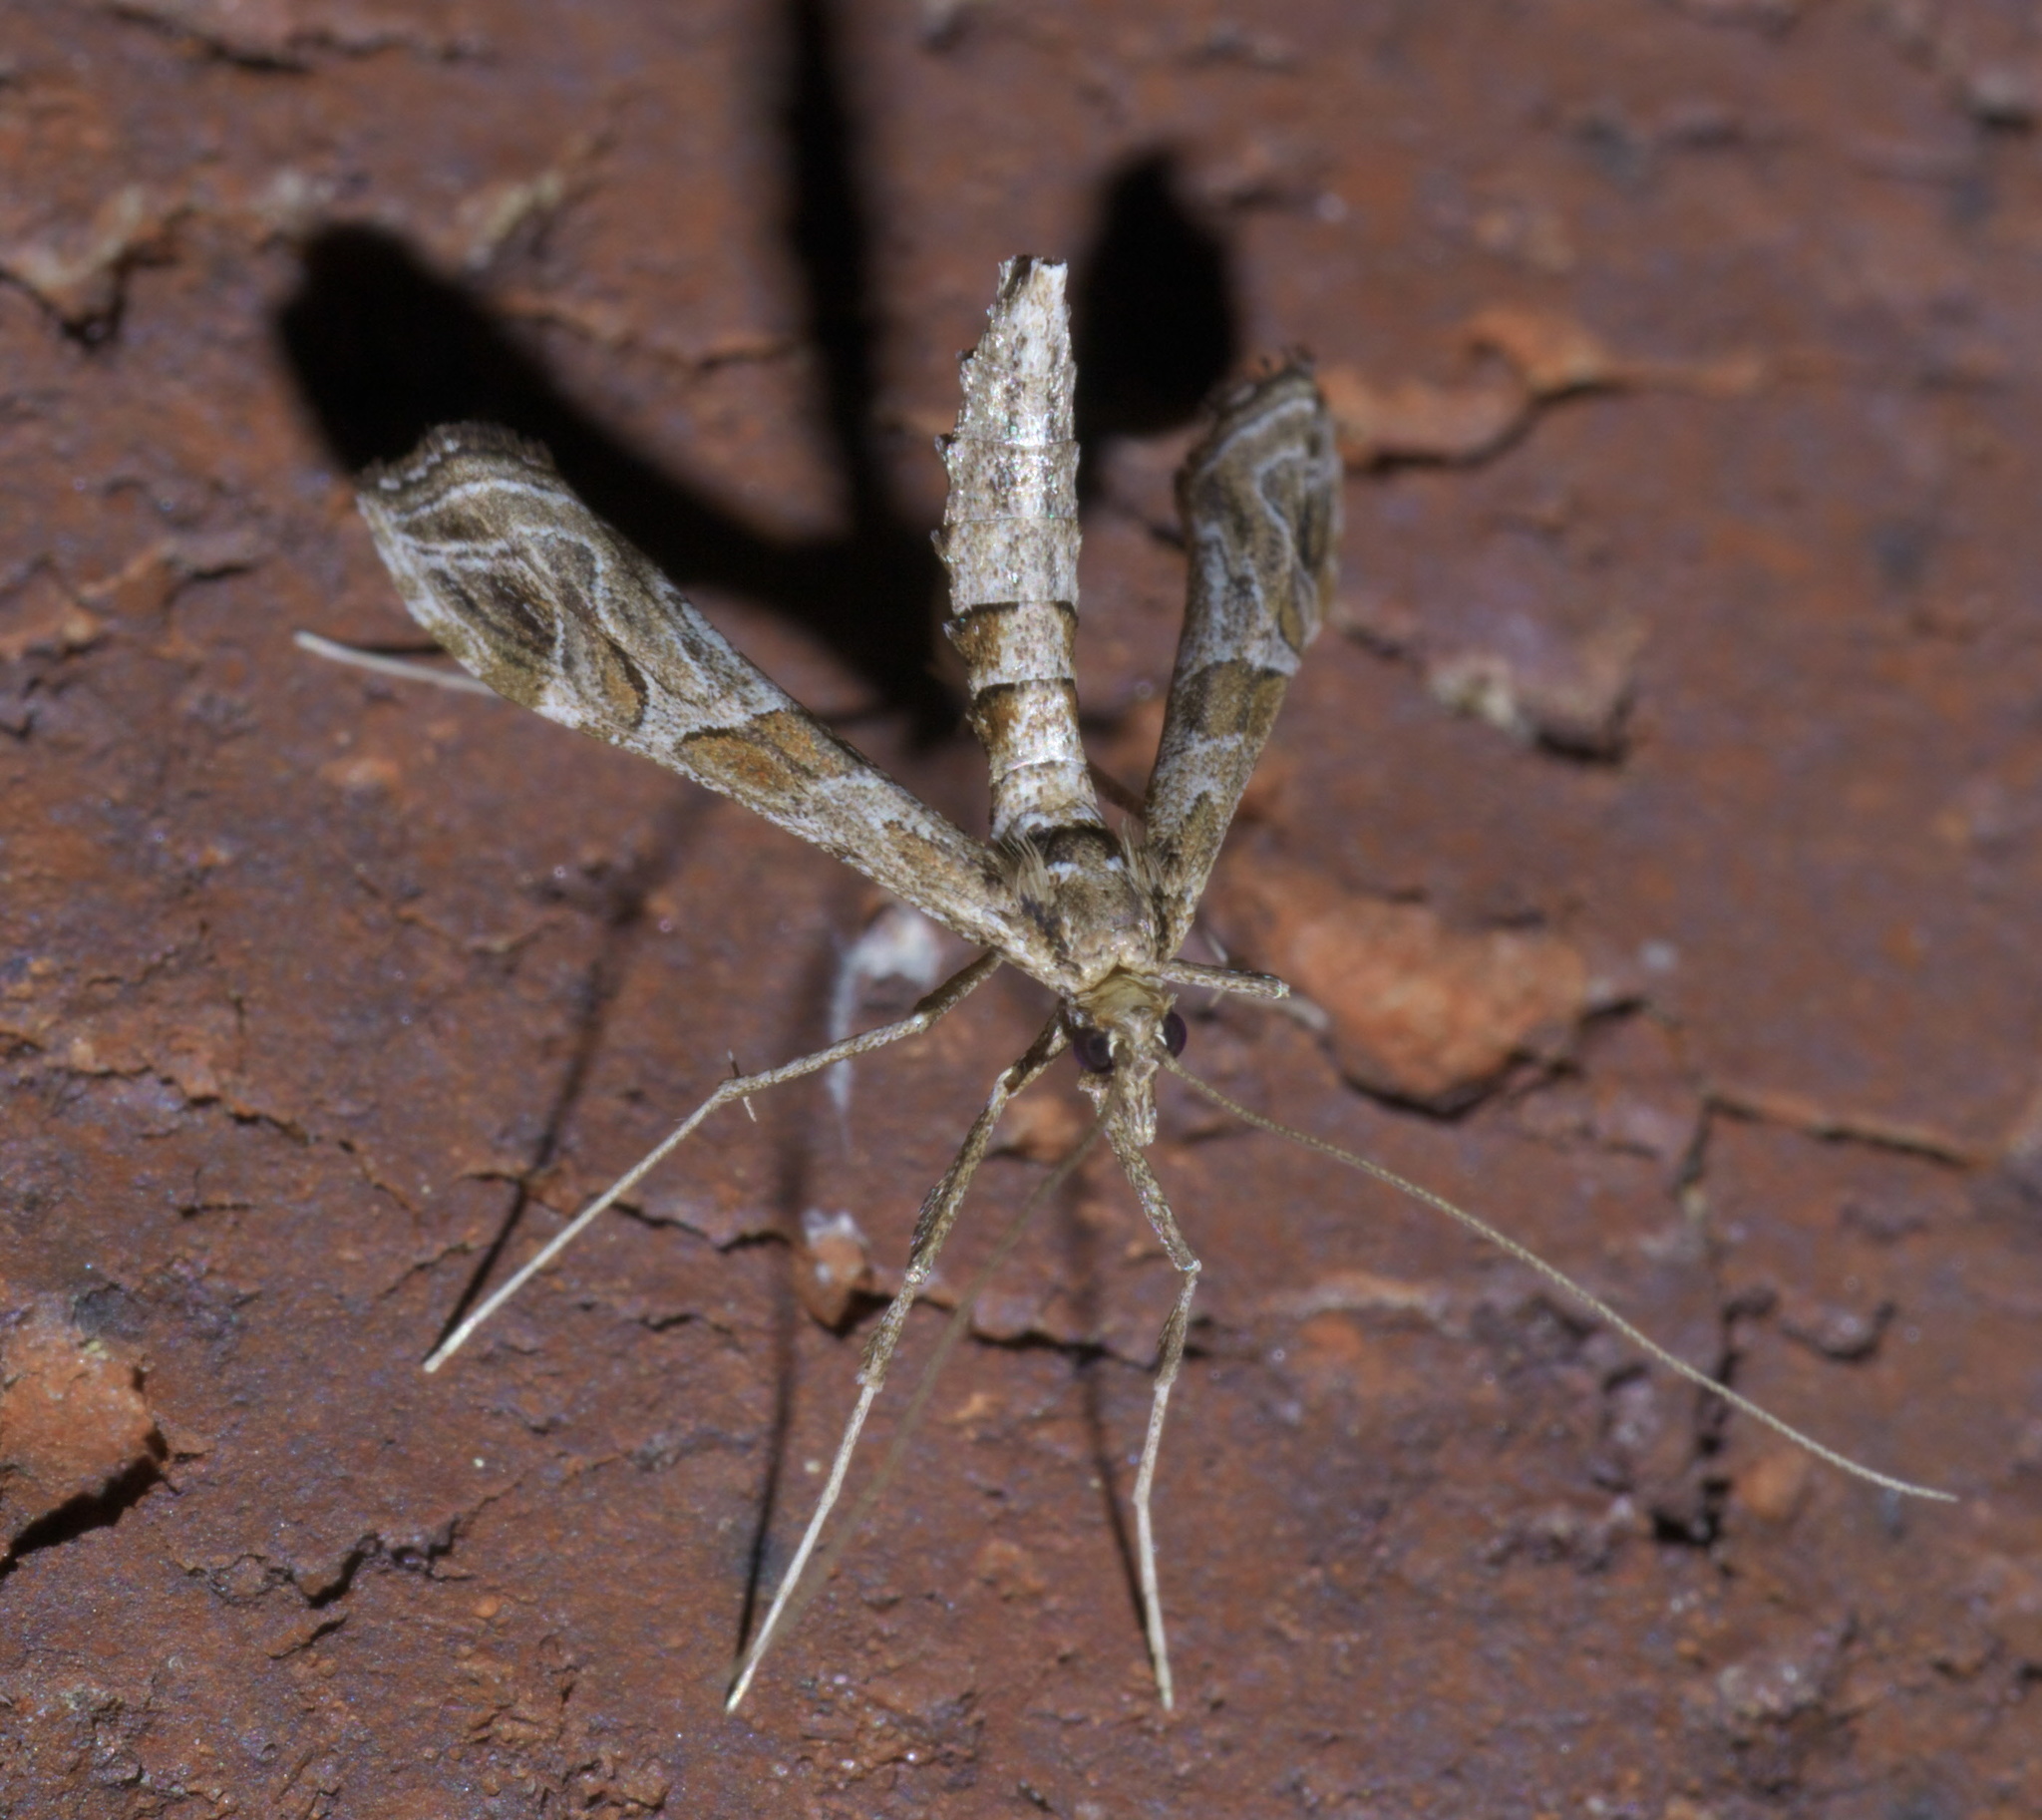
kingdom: Animalia
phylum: Arthropoda
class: Insecta
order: Lepidoptera
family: Crambidae
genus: Lineodes
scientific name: Lineodes interrupta
